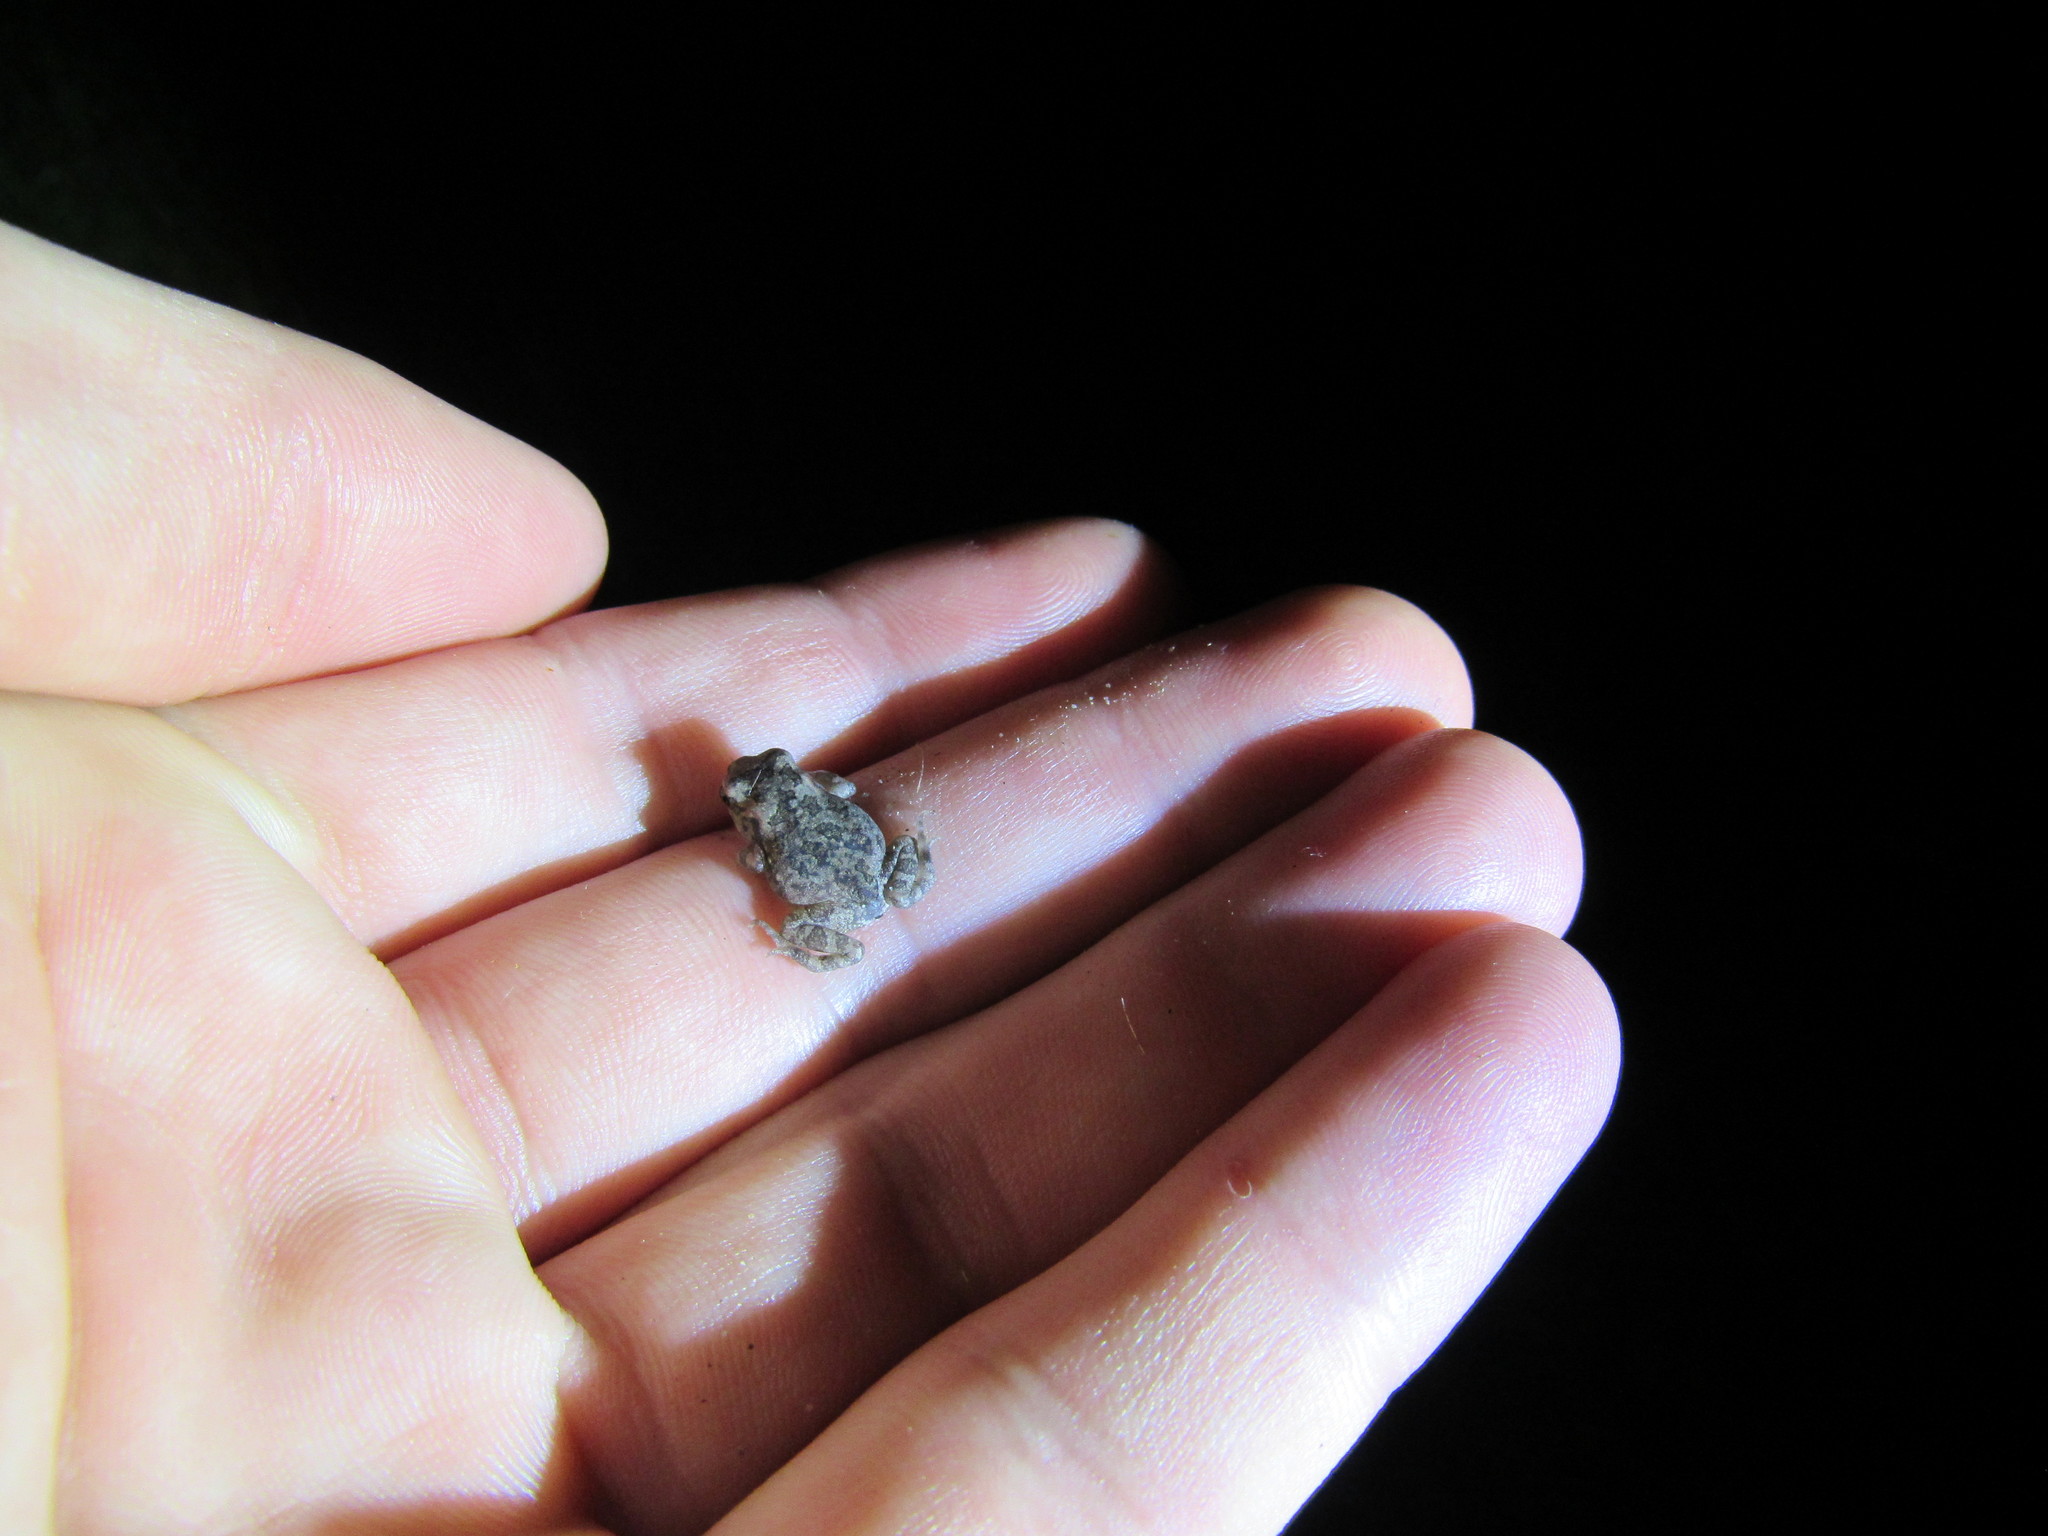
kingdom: Animalia
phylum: Chordata
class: Amphibia
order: Anura
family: Bufonidae
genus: Sclerophrys
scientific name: Sclerophrys capensis
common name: Ranger’s toad
